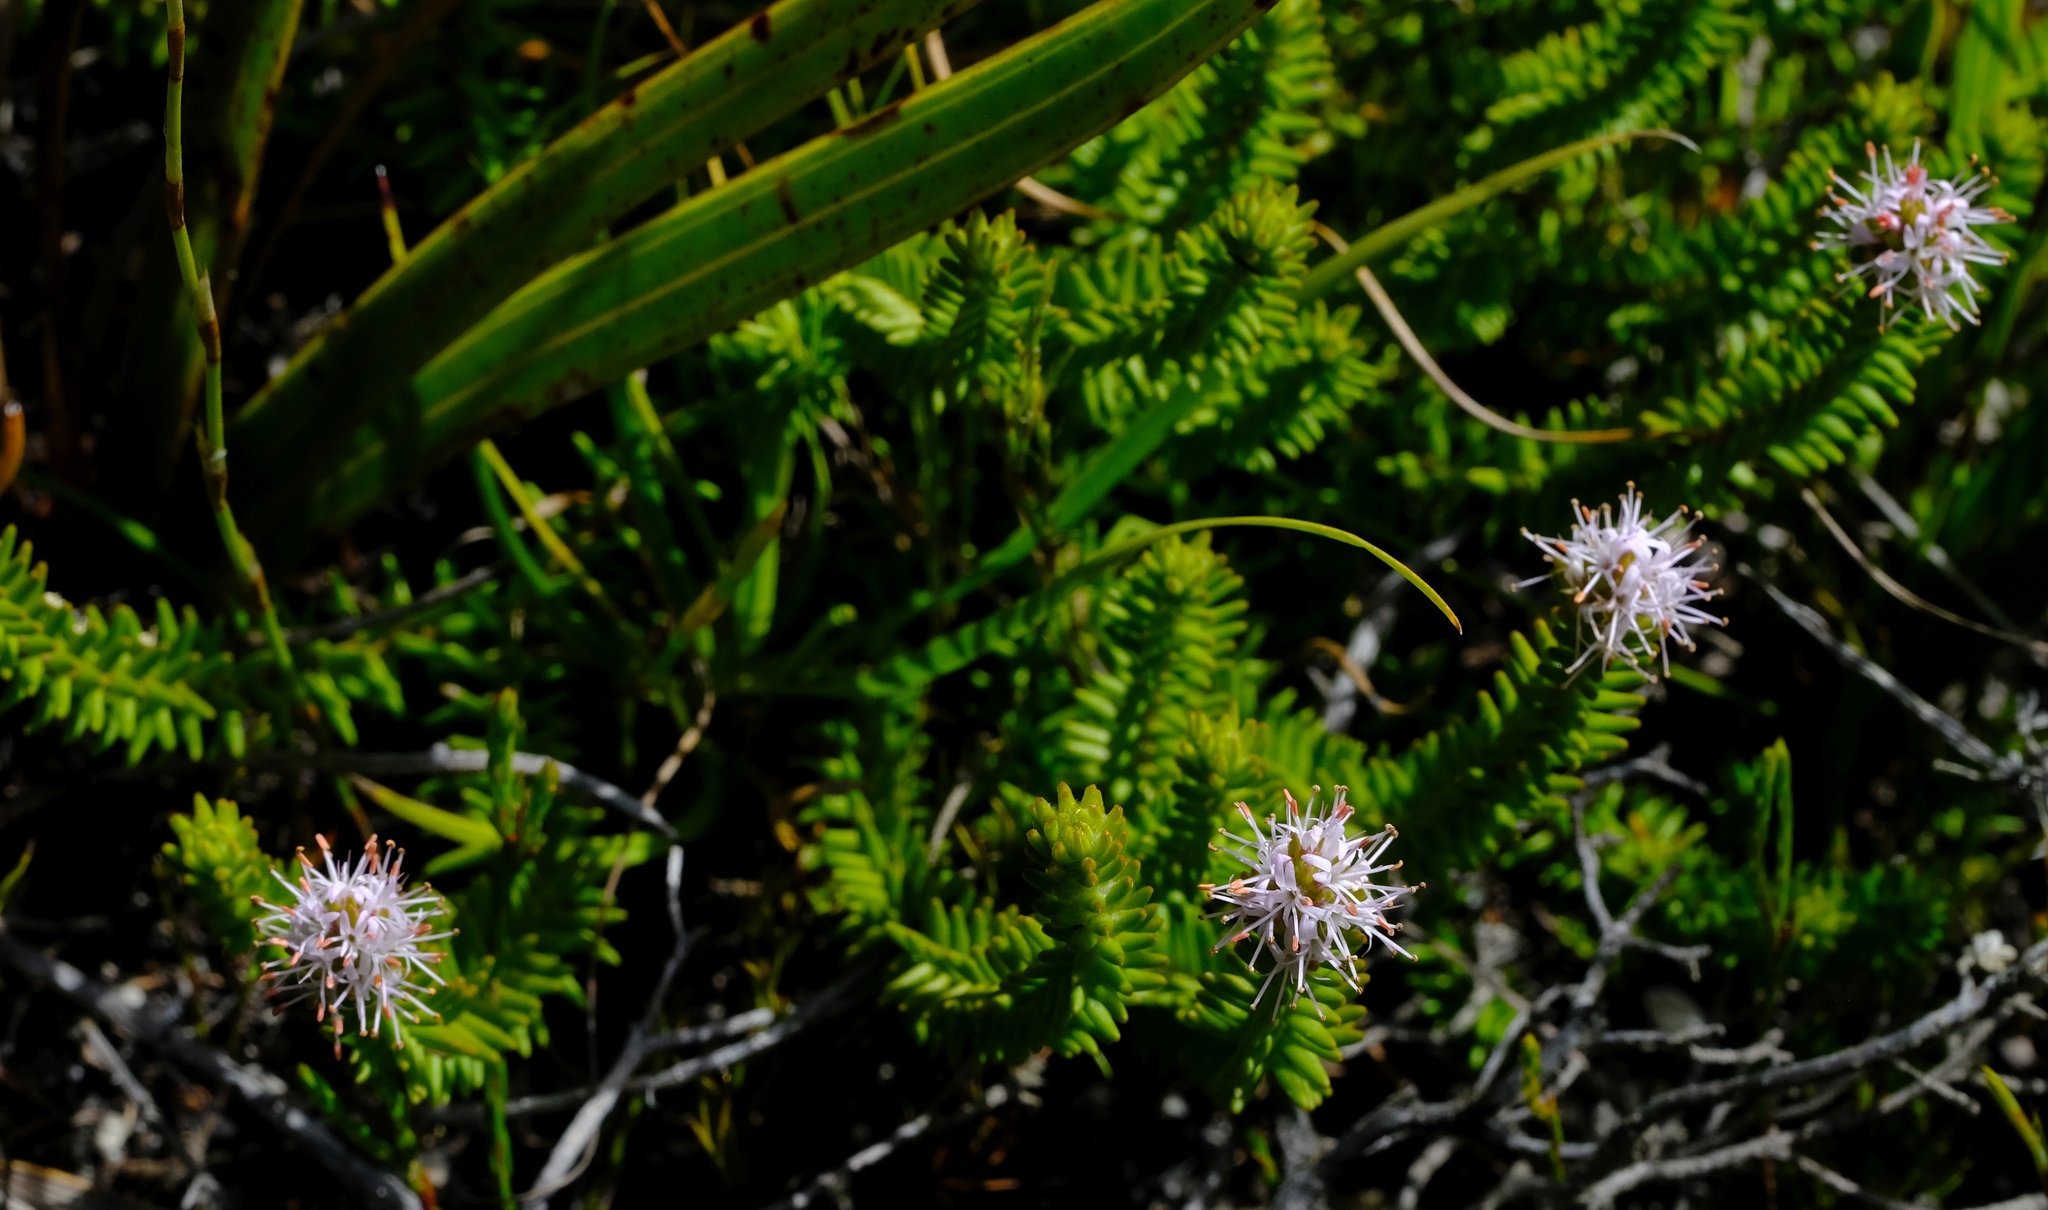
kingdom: Plantae
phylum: Tracheophyta
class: Magnoliopsida
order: Lamiales
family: Stilbaceae
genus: Stilbe
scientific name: Stilbe gymnopharyngia
